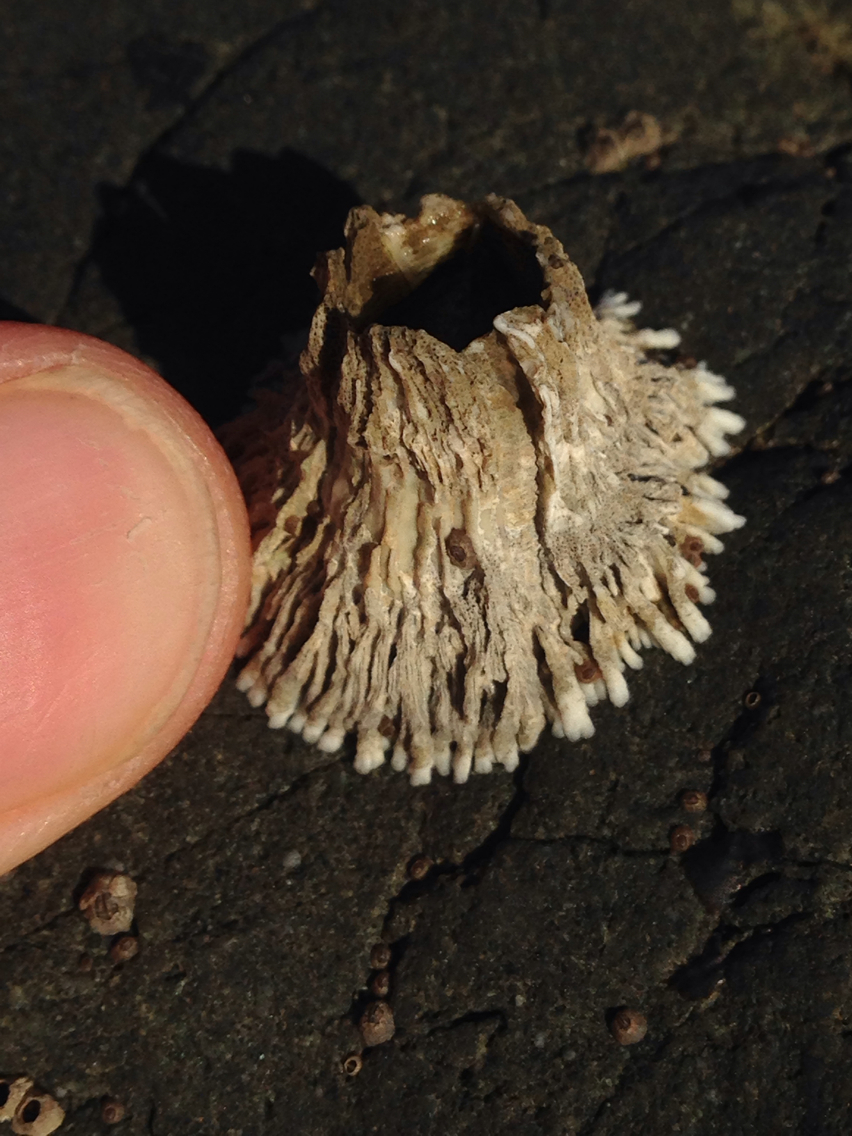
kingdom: Animalia
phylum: Arthropoda
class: Maxillopoda
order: Sessilia
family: Archaeobalanidae
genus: Semibalanus
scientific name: Semibalanus cariosus
